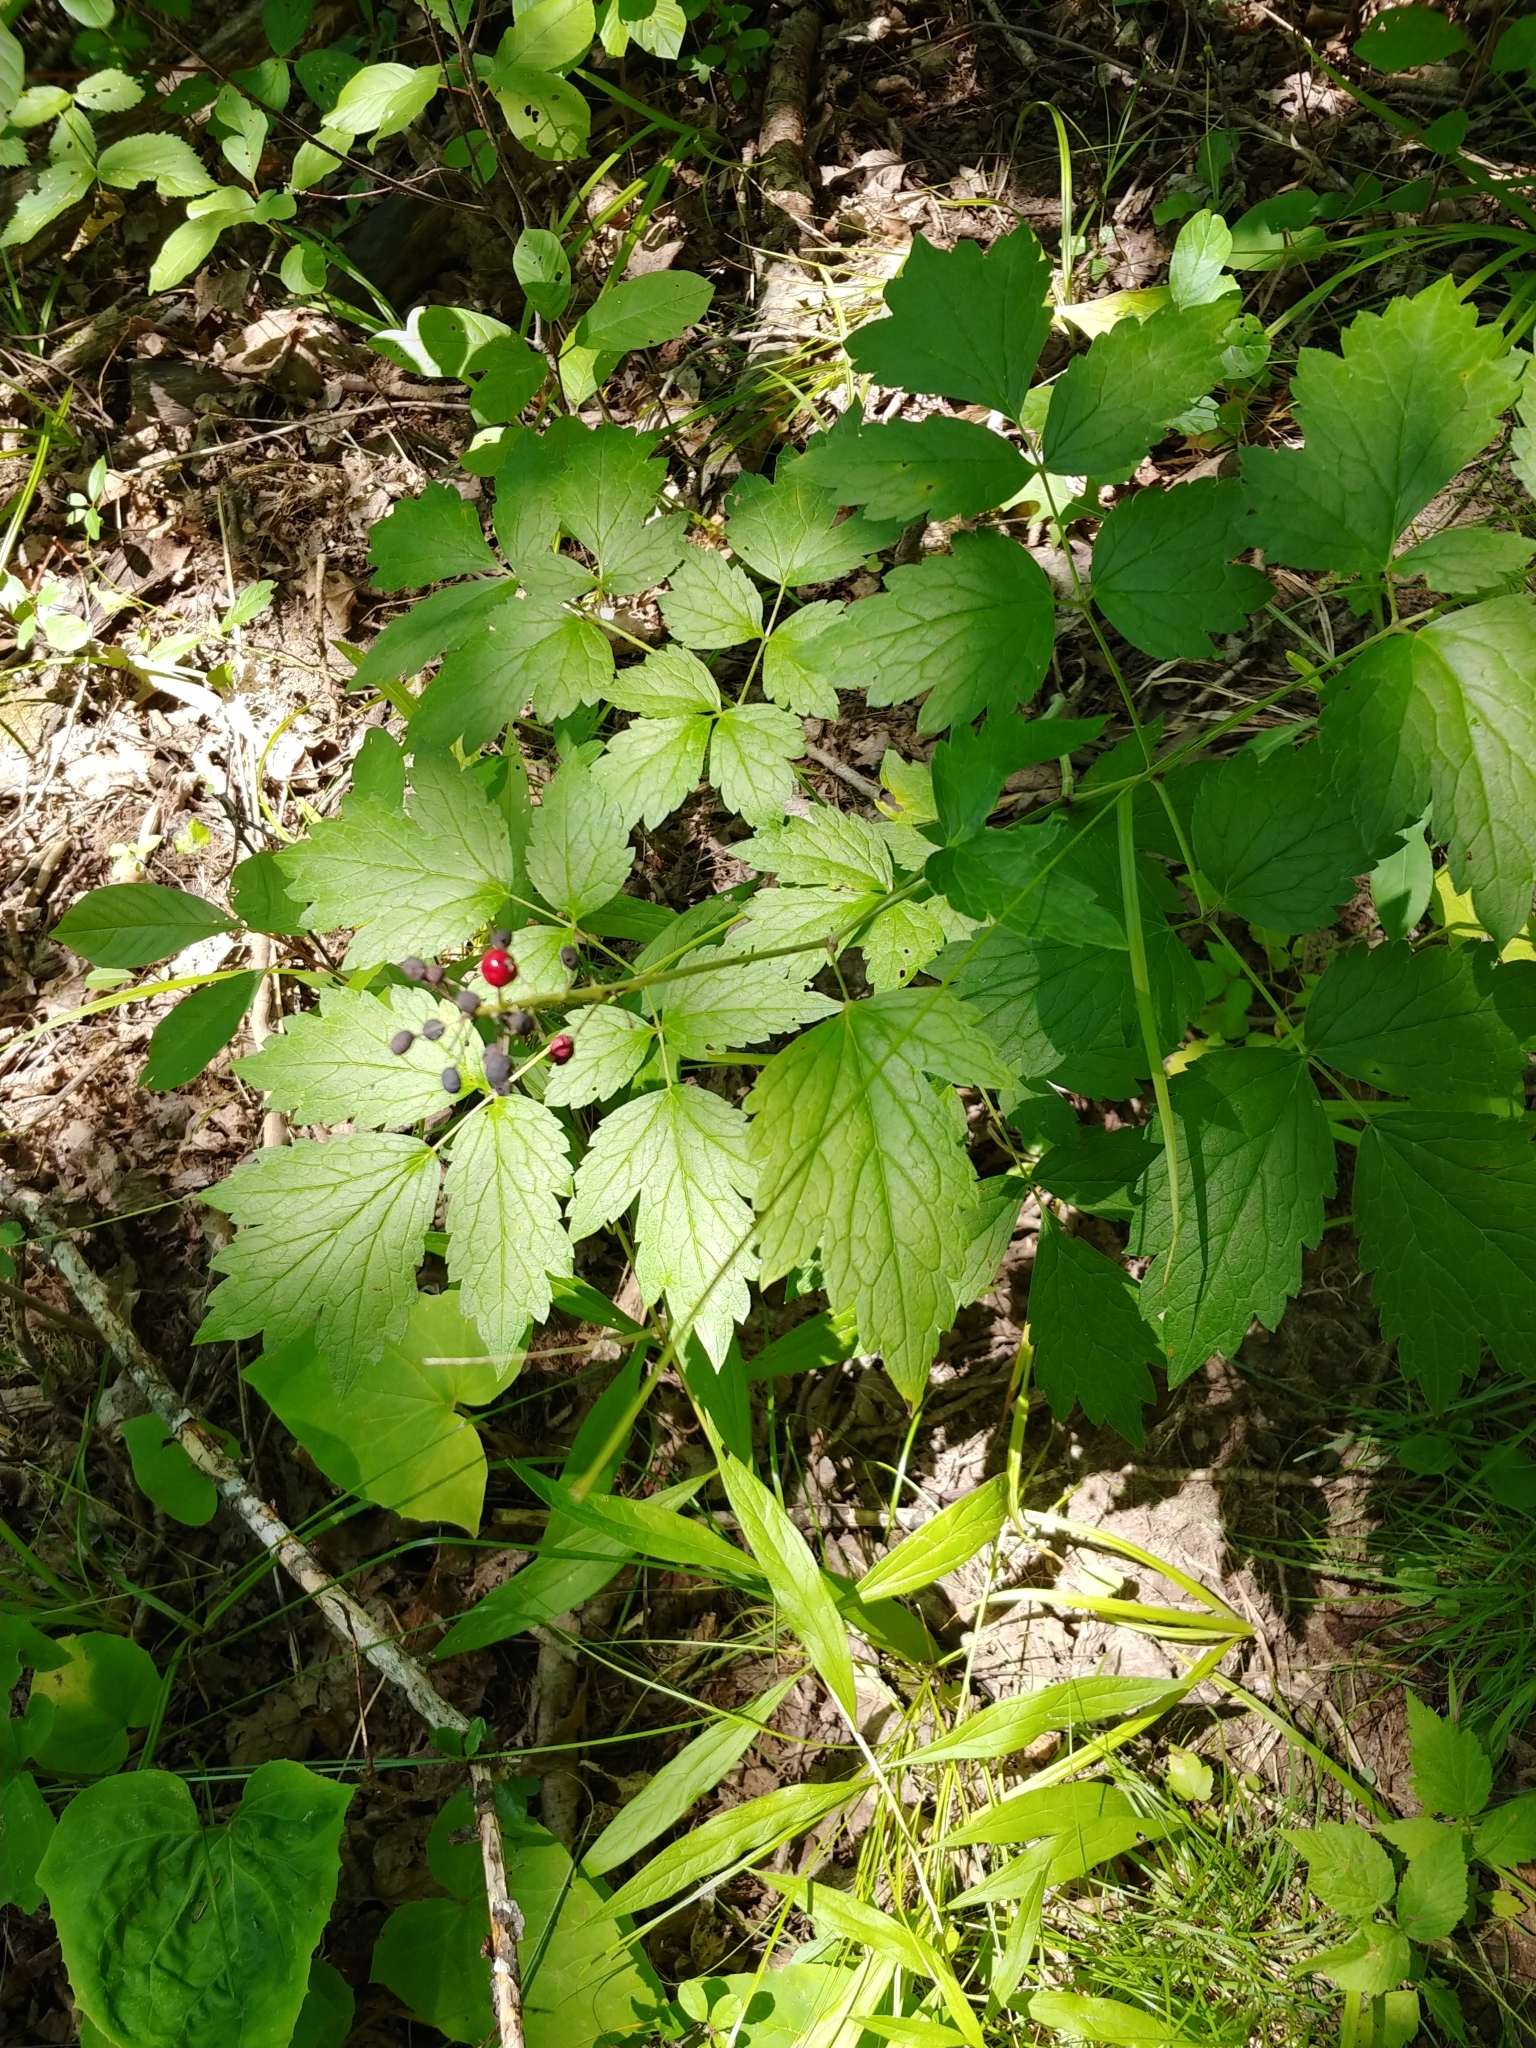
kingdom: Plantae
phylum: Tracheophyta
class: Magnoliopsida
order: Ranunculales
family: Ranunculaceae
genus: Actaea
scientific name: Actaea rubra
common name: Red baneberry
